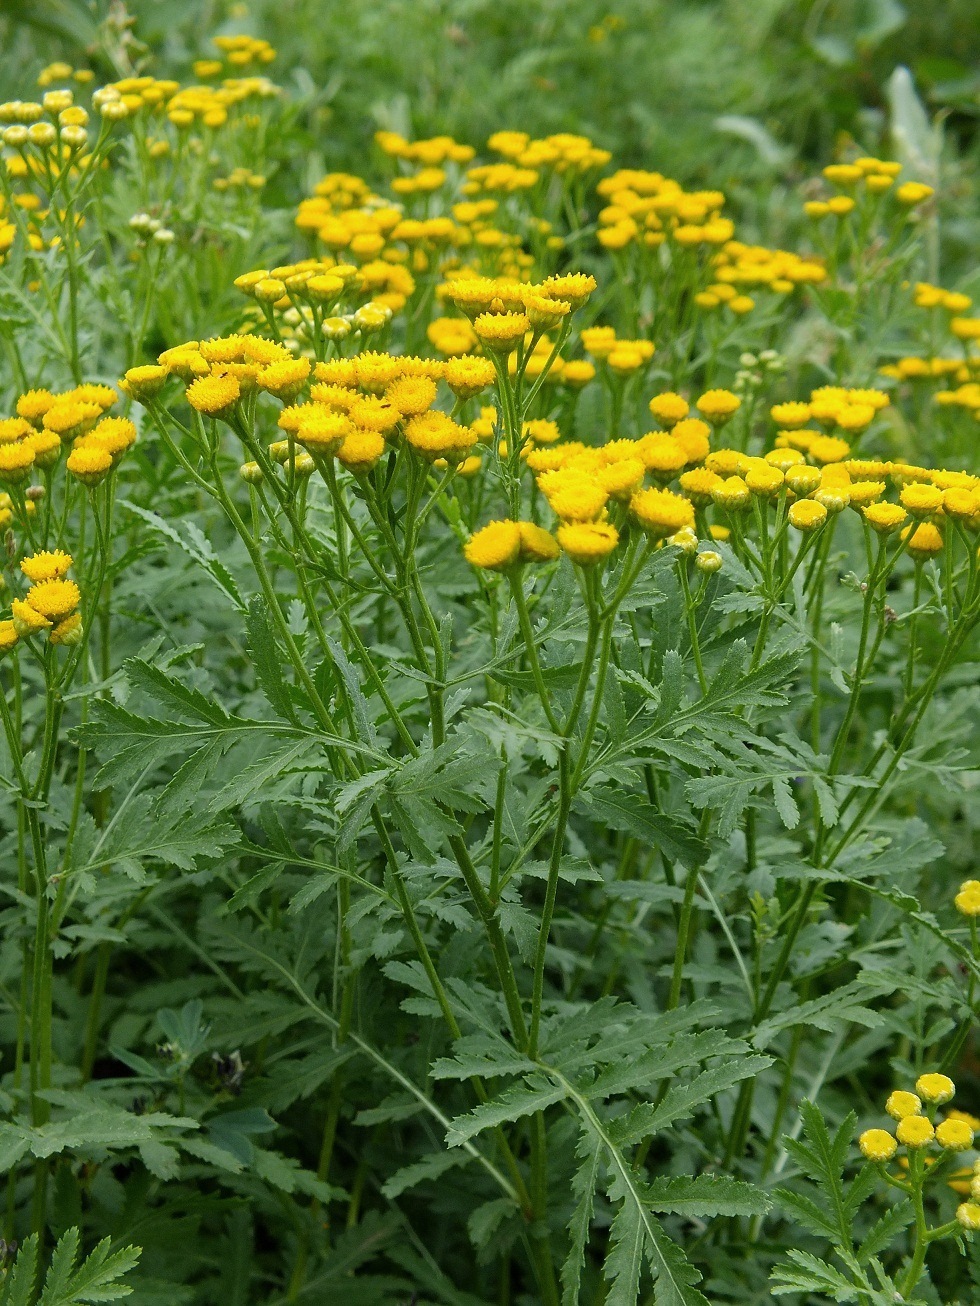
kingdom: Plantae
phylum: Tracheophyta
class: Magnoliopsida
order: Asterales
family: Asteraceae
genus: Tanacetum
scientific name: Tanacetum vulgare
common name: Common tansy
